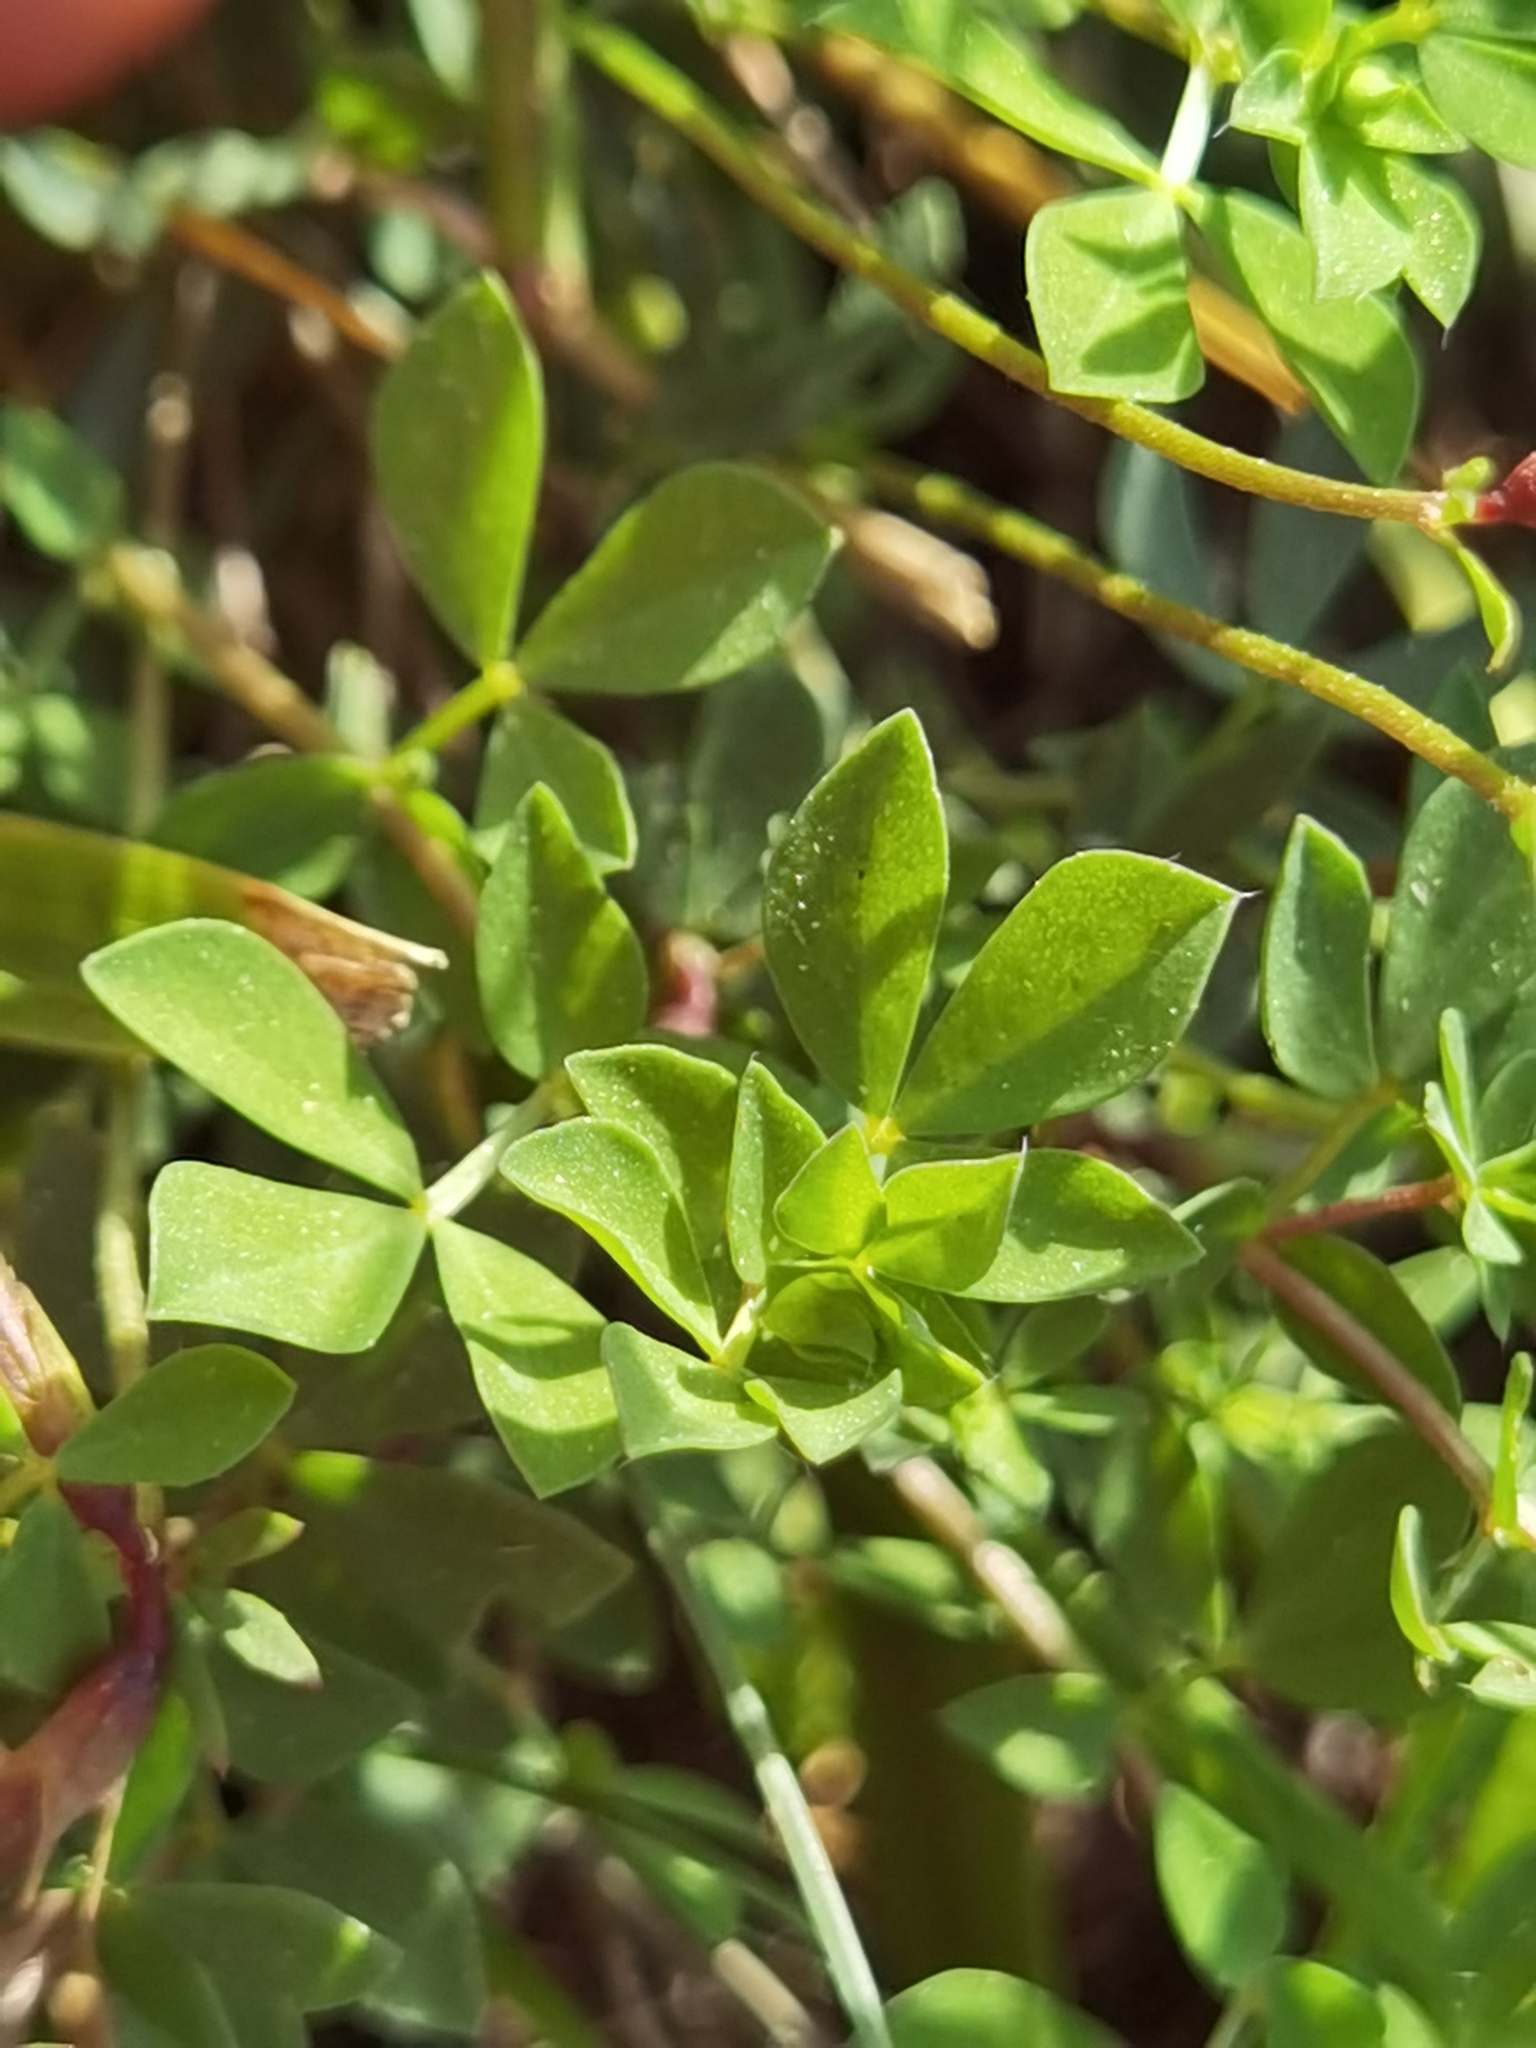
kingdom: Plantae
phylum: Tracheophyta
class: Magnoliopsida
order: Fabales
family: Fabaceae
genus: Lotus
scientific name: Lotus corniculatus
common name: Common bird's-foot-trefoil
